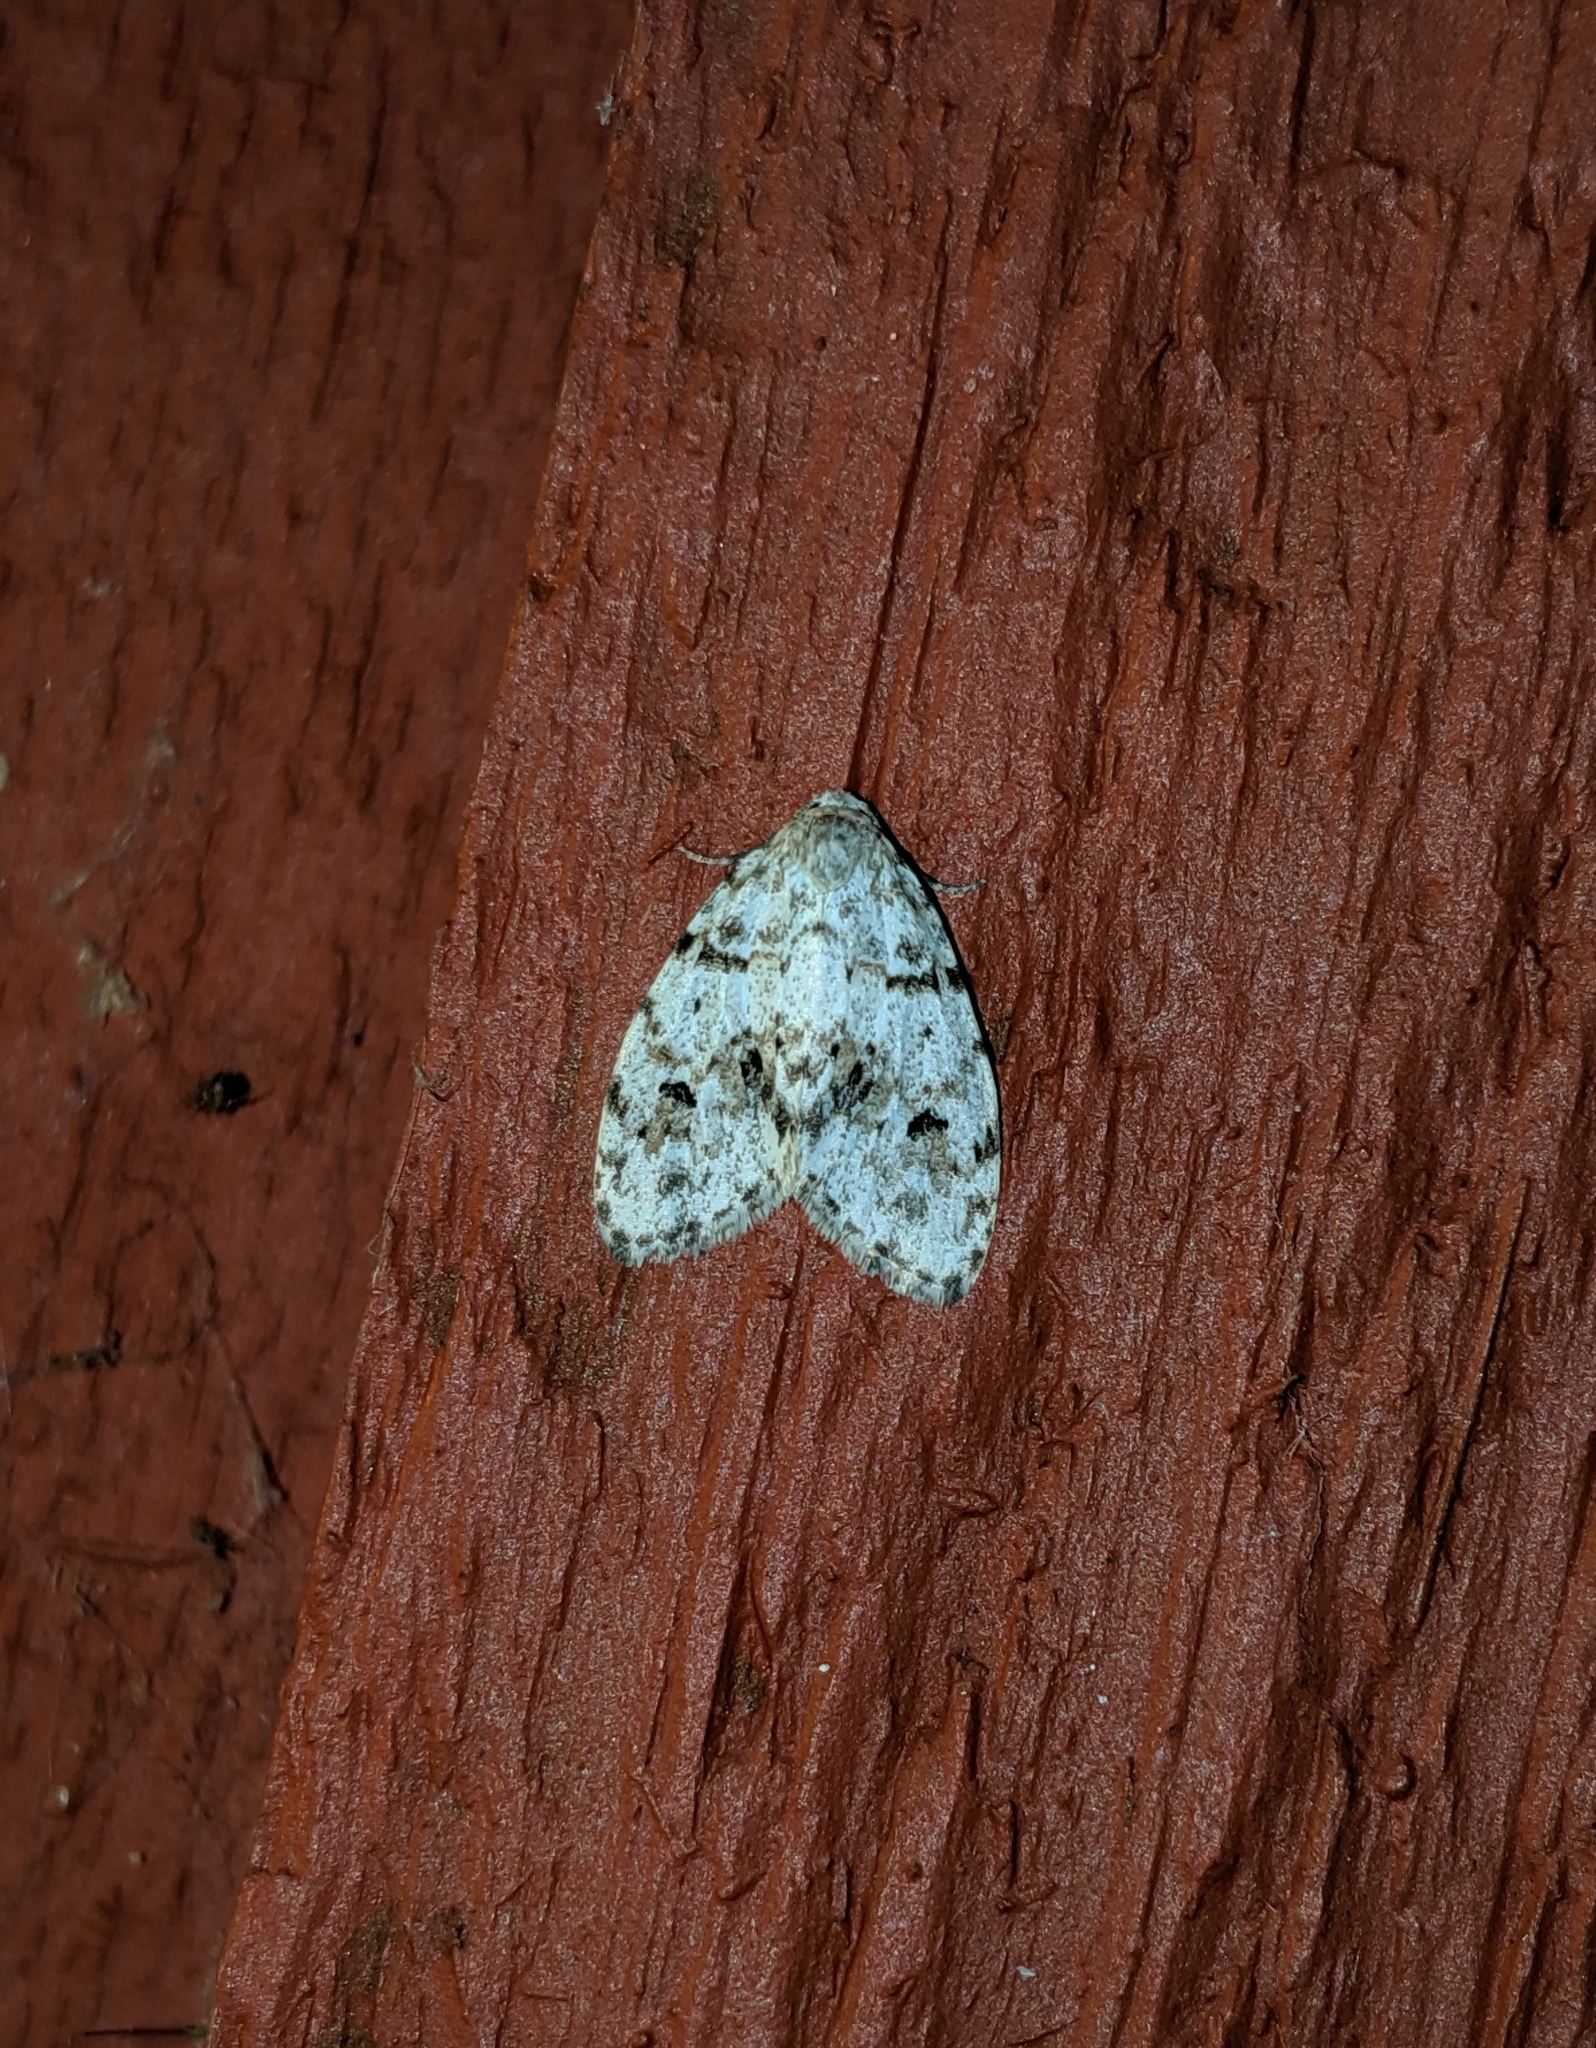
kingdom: Animalia
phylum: Arthropoda
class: Insecta
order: Lepidoptera
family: Erebidae
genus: Clemensia
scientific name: Clemensia umbrata
